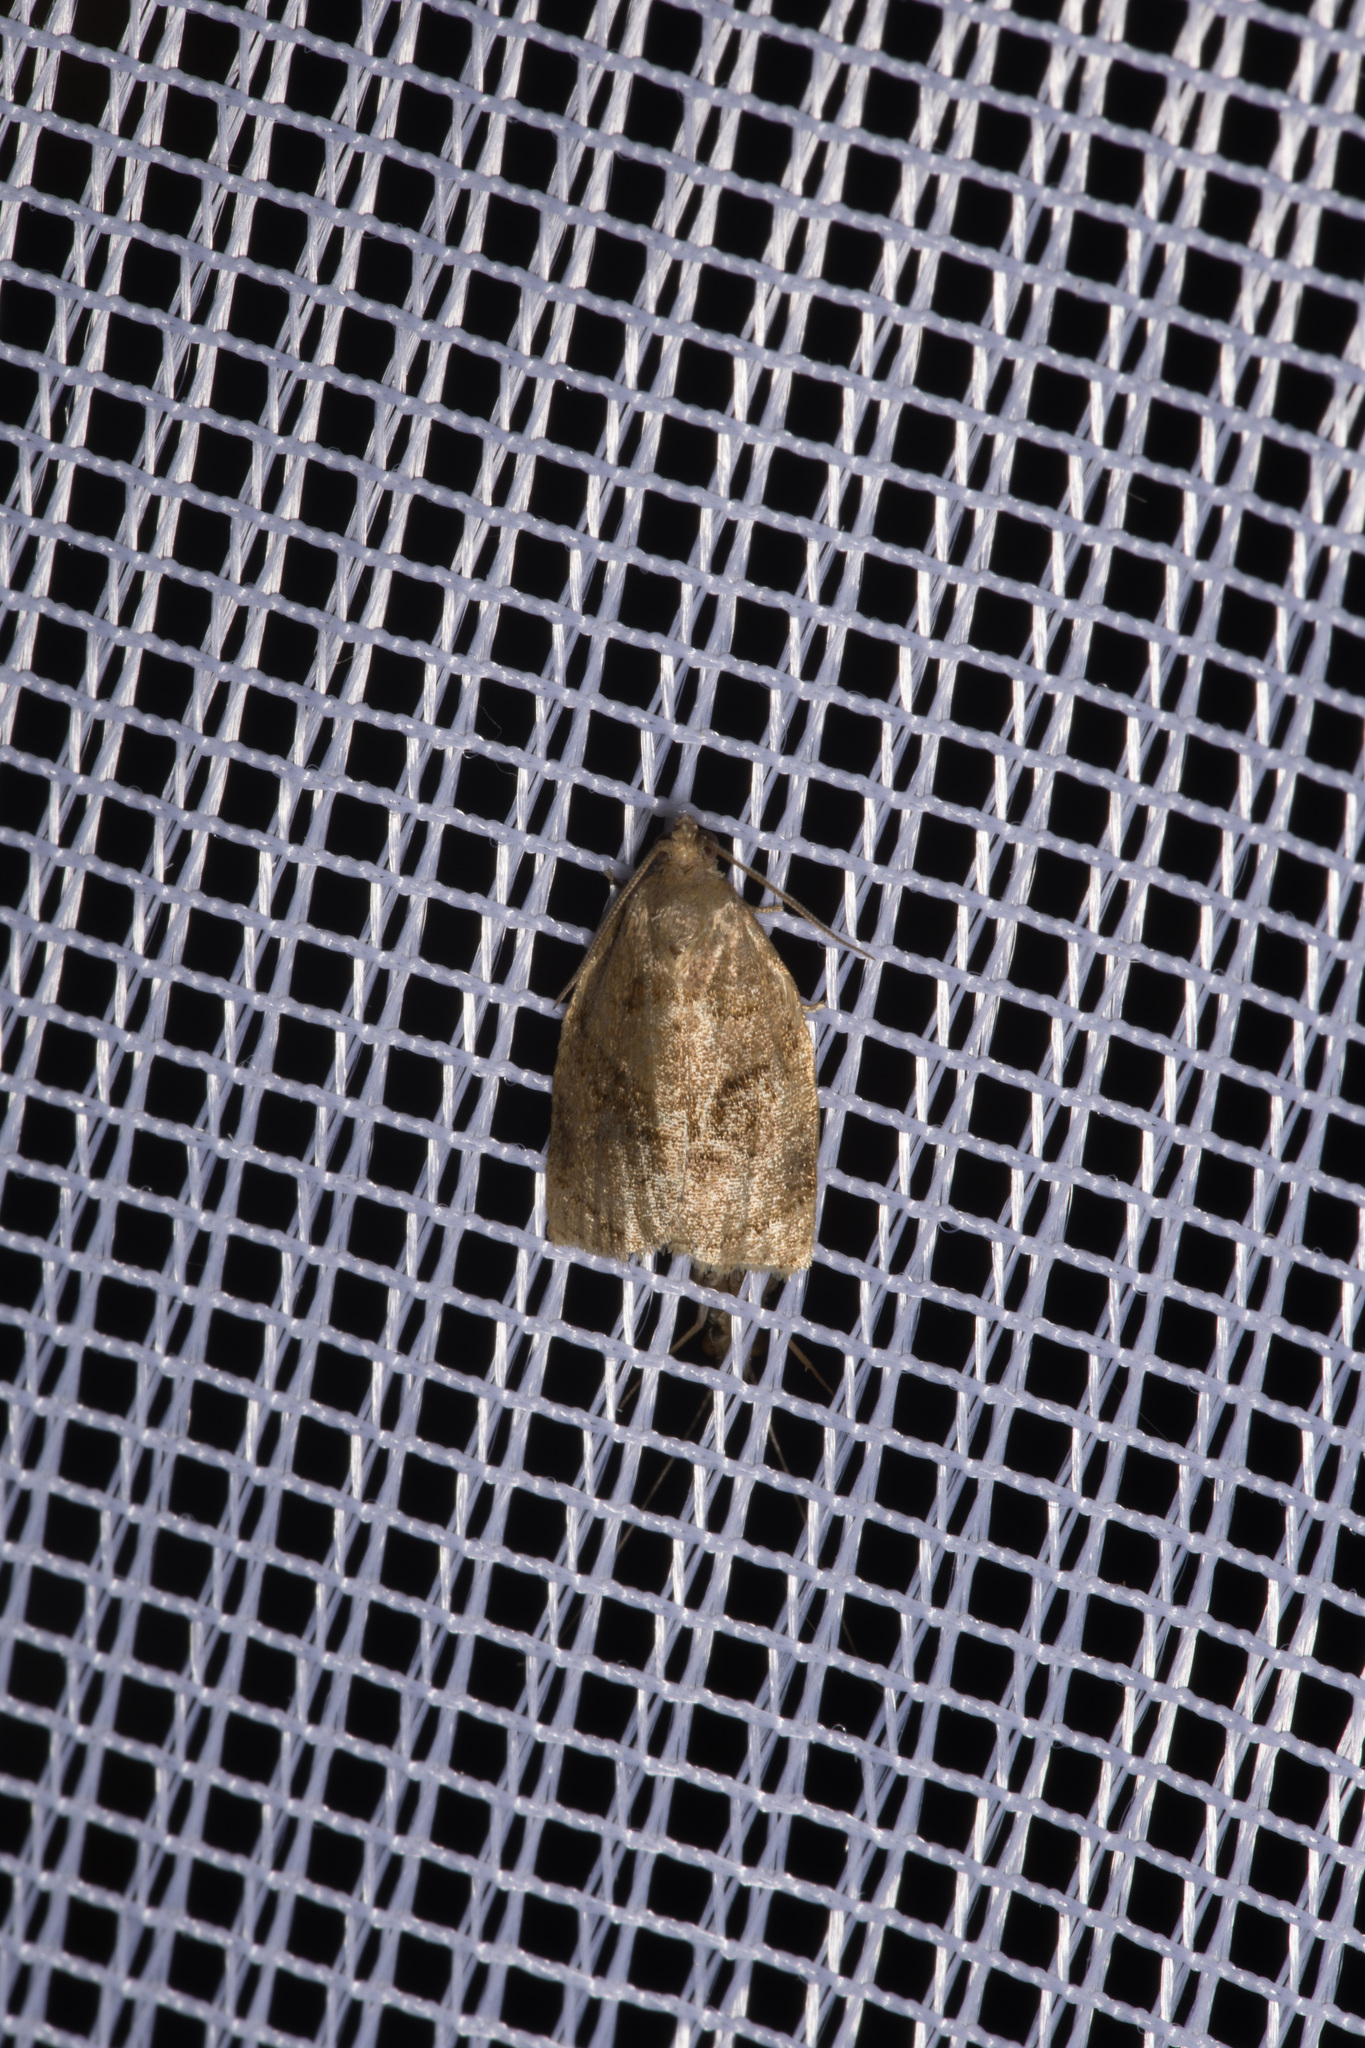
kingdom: Animalia
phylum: Arthropoda
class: Insecta
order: Lepidoptera
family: Tortricidae
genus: Archips
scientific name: Archips rosana
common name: Rose tortrix
